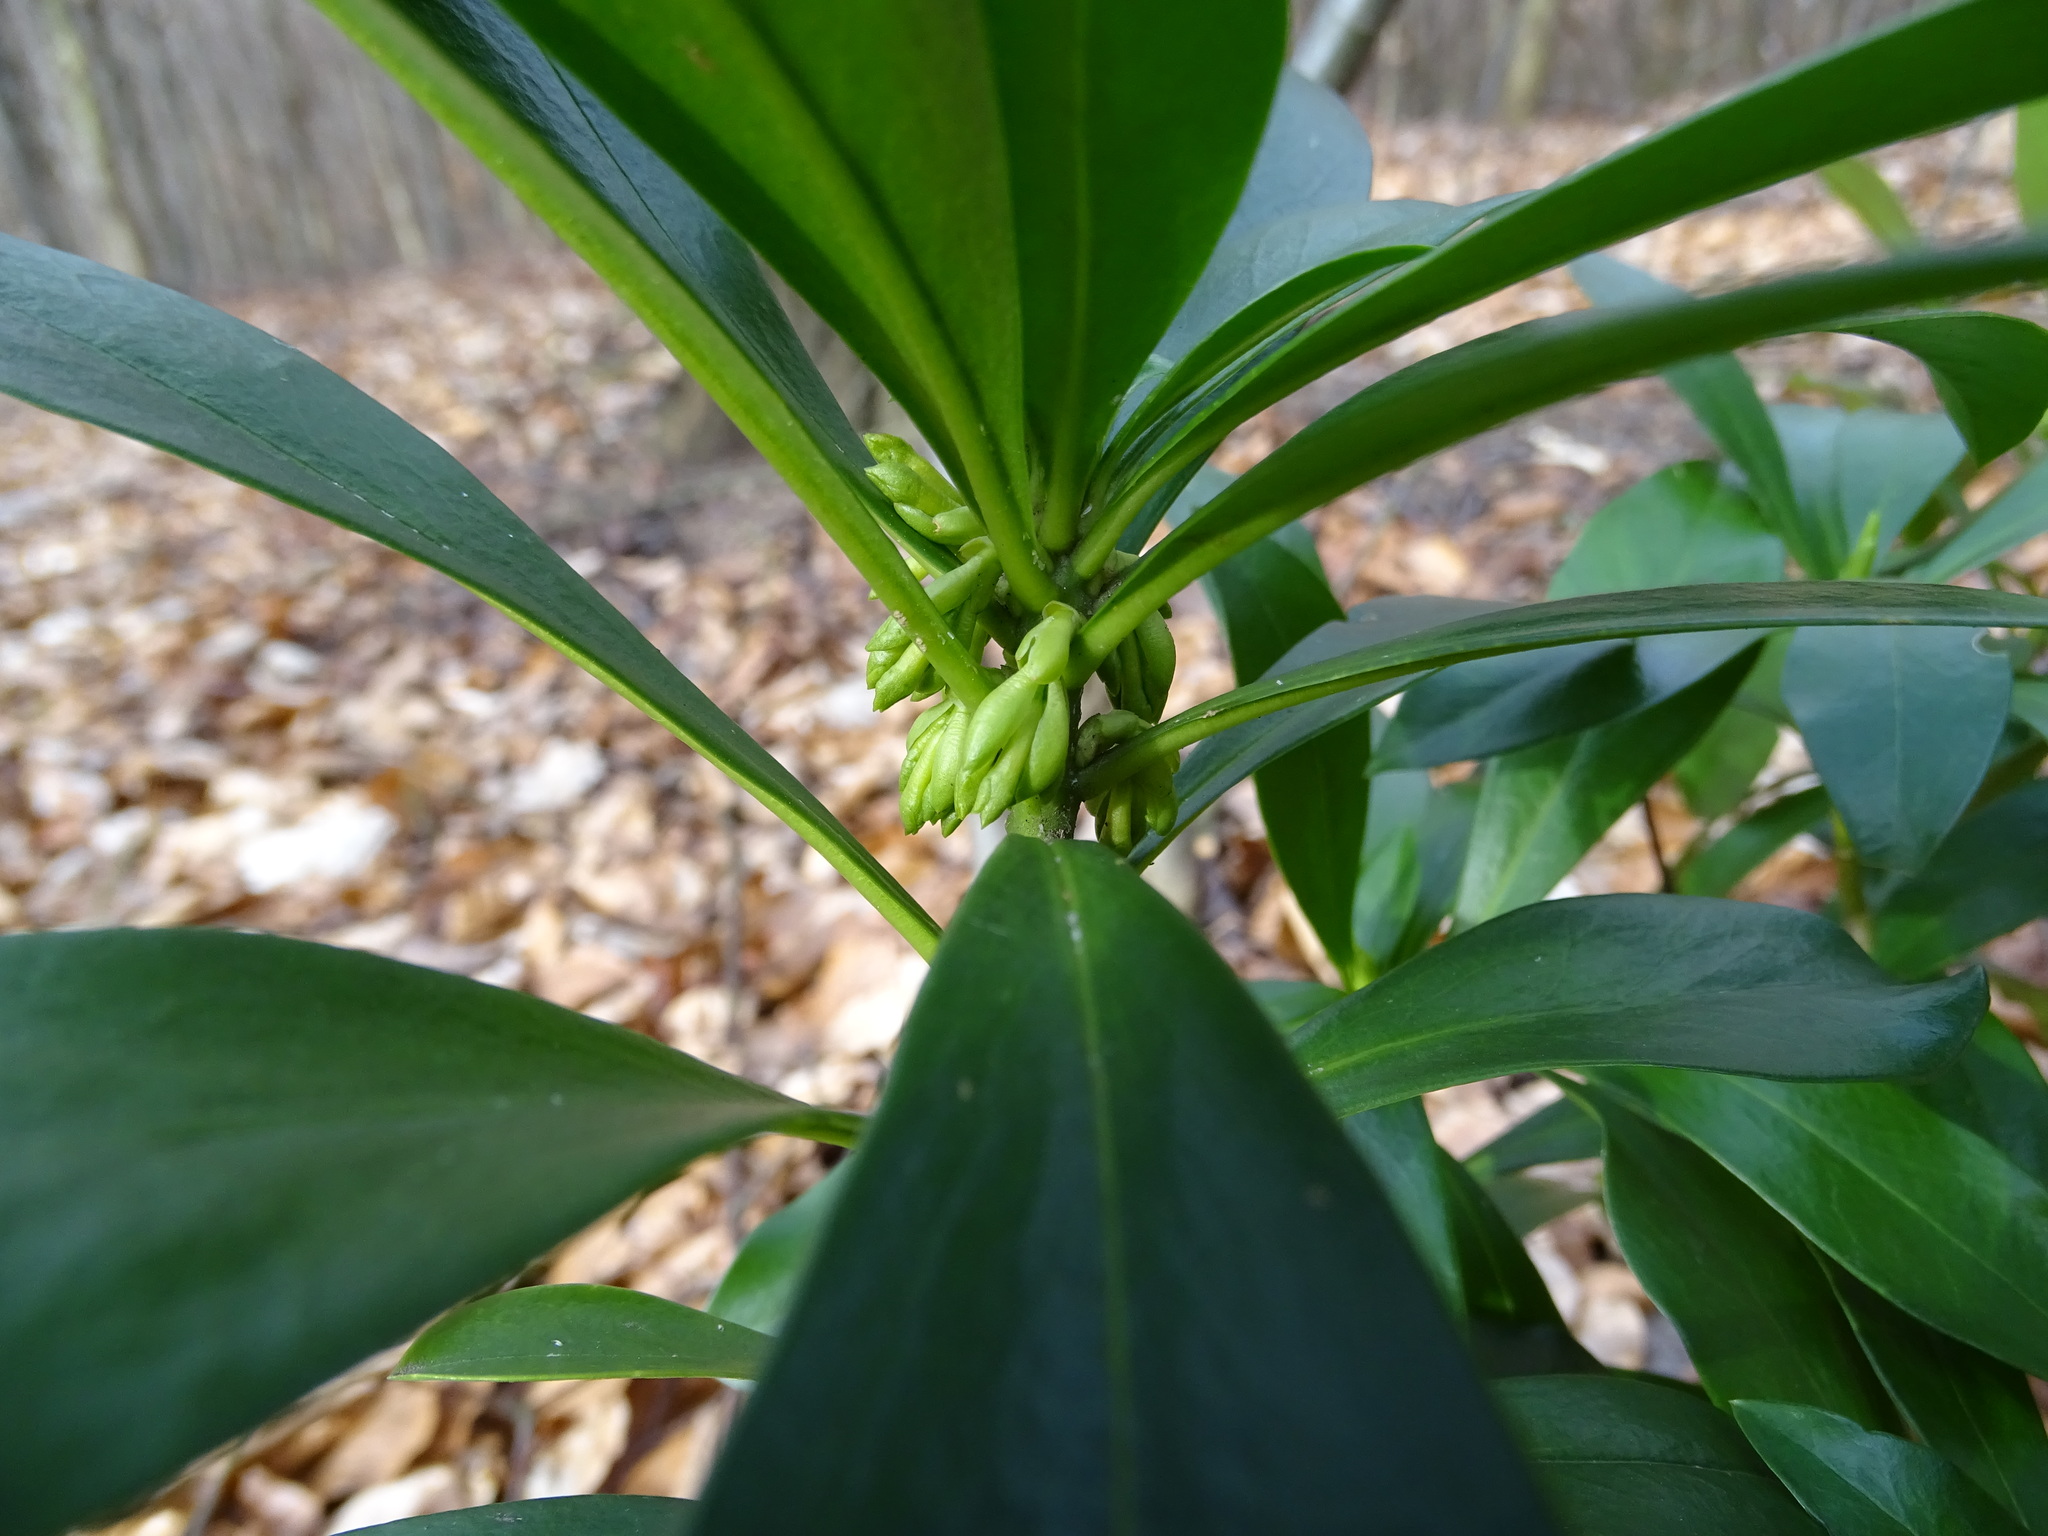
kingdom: Plantae
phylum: Tracheophyta
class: Magnoliopsida
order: Malvales
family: Thymelaeaceae
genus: Daphne
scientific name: Daphne laureola
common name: Spurge-laurel
